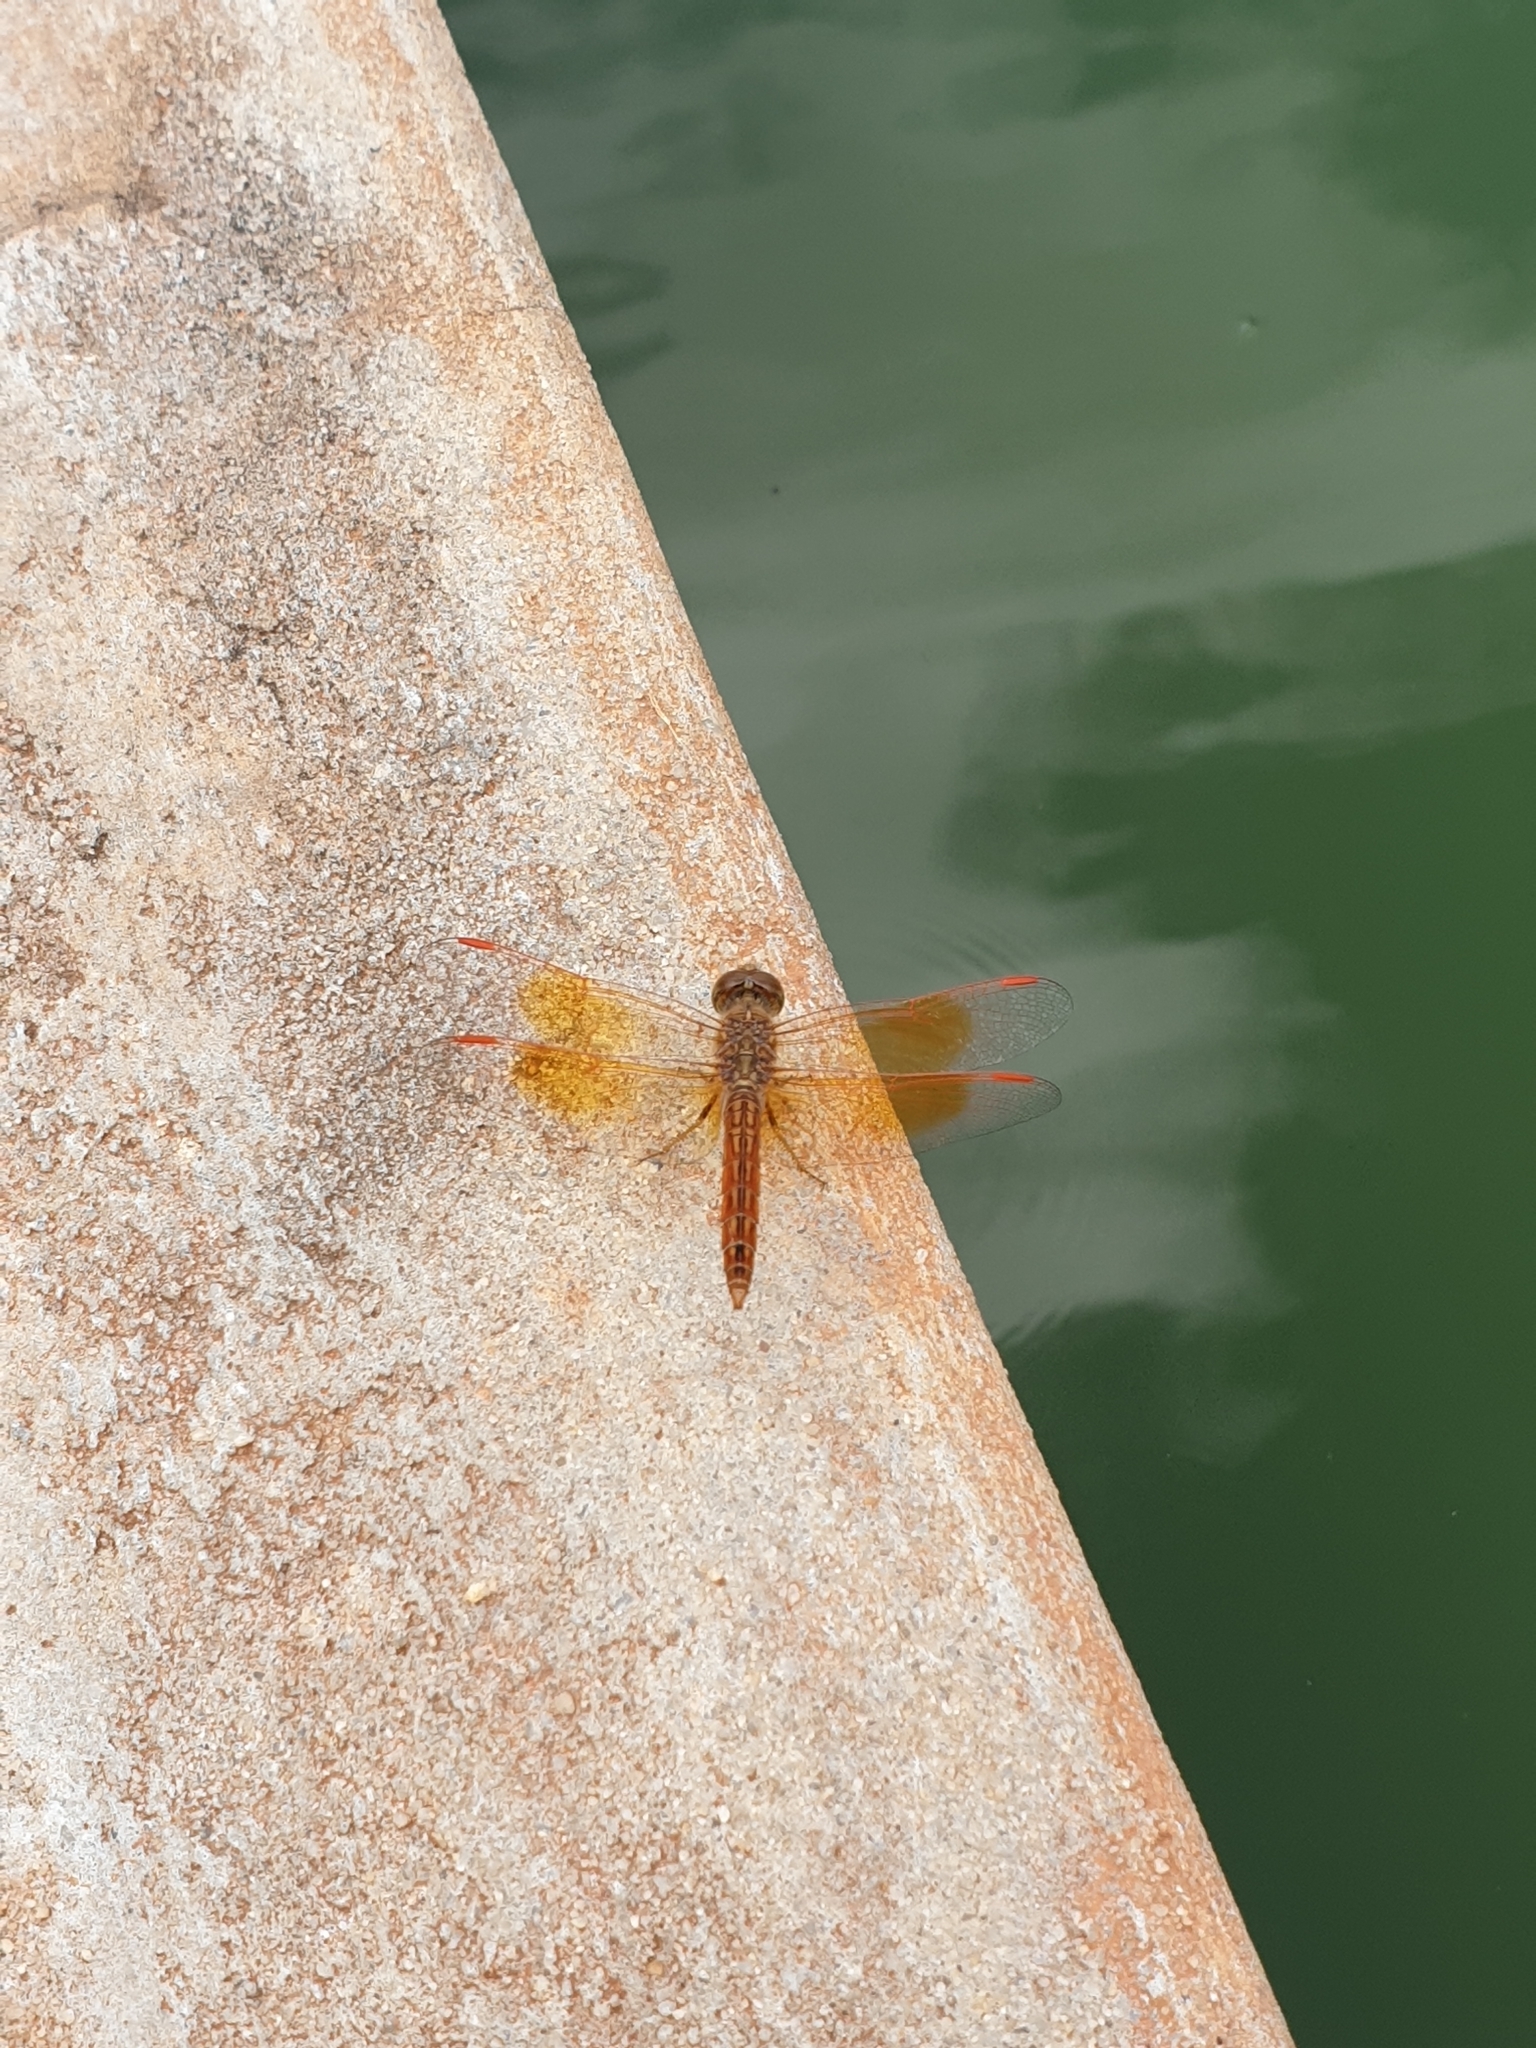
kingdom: Animalia
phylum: Arthropoda
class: Insecta
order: Odonata
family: Libellulidae
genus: Brachythemis
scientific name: Brachythemis contaminata
